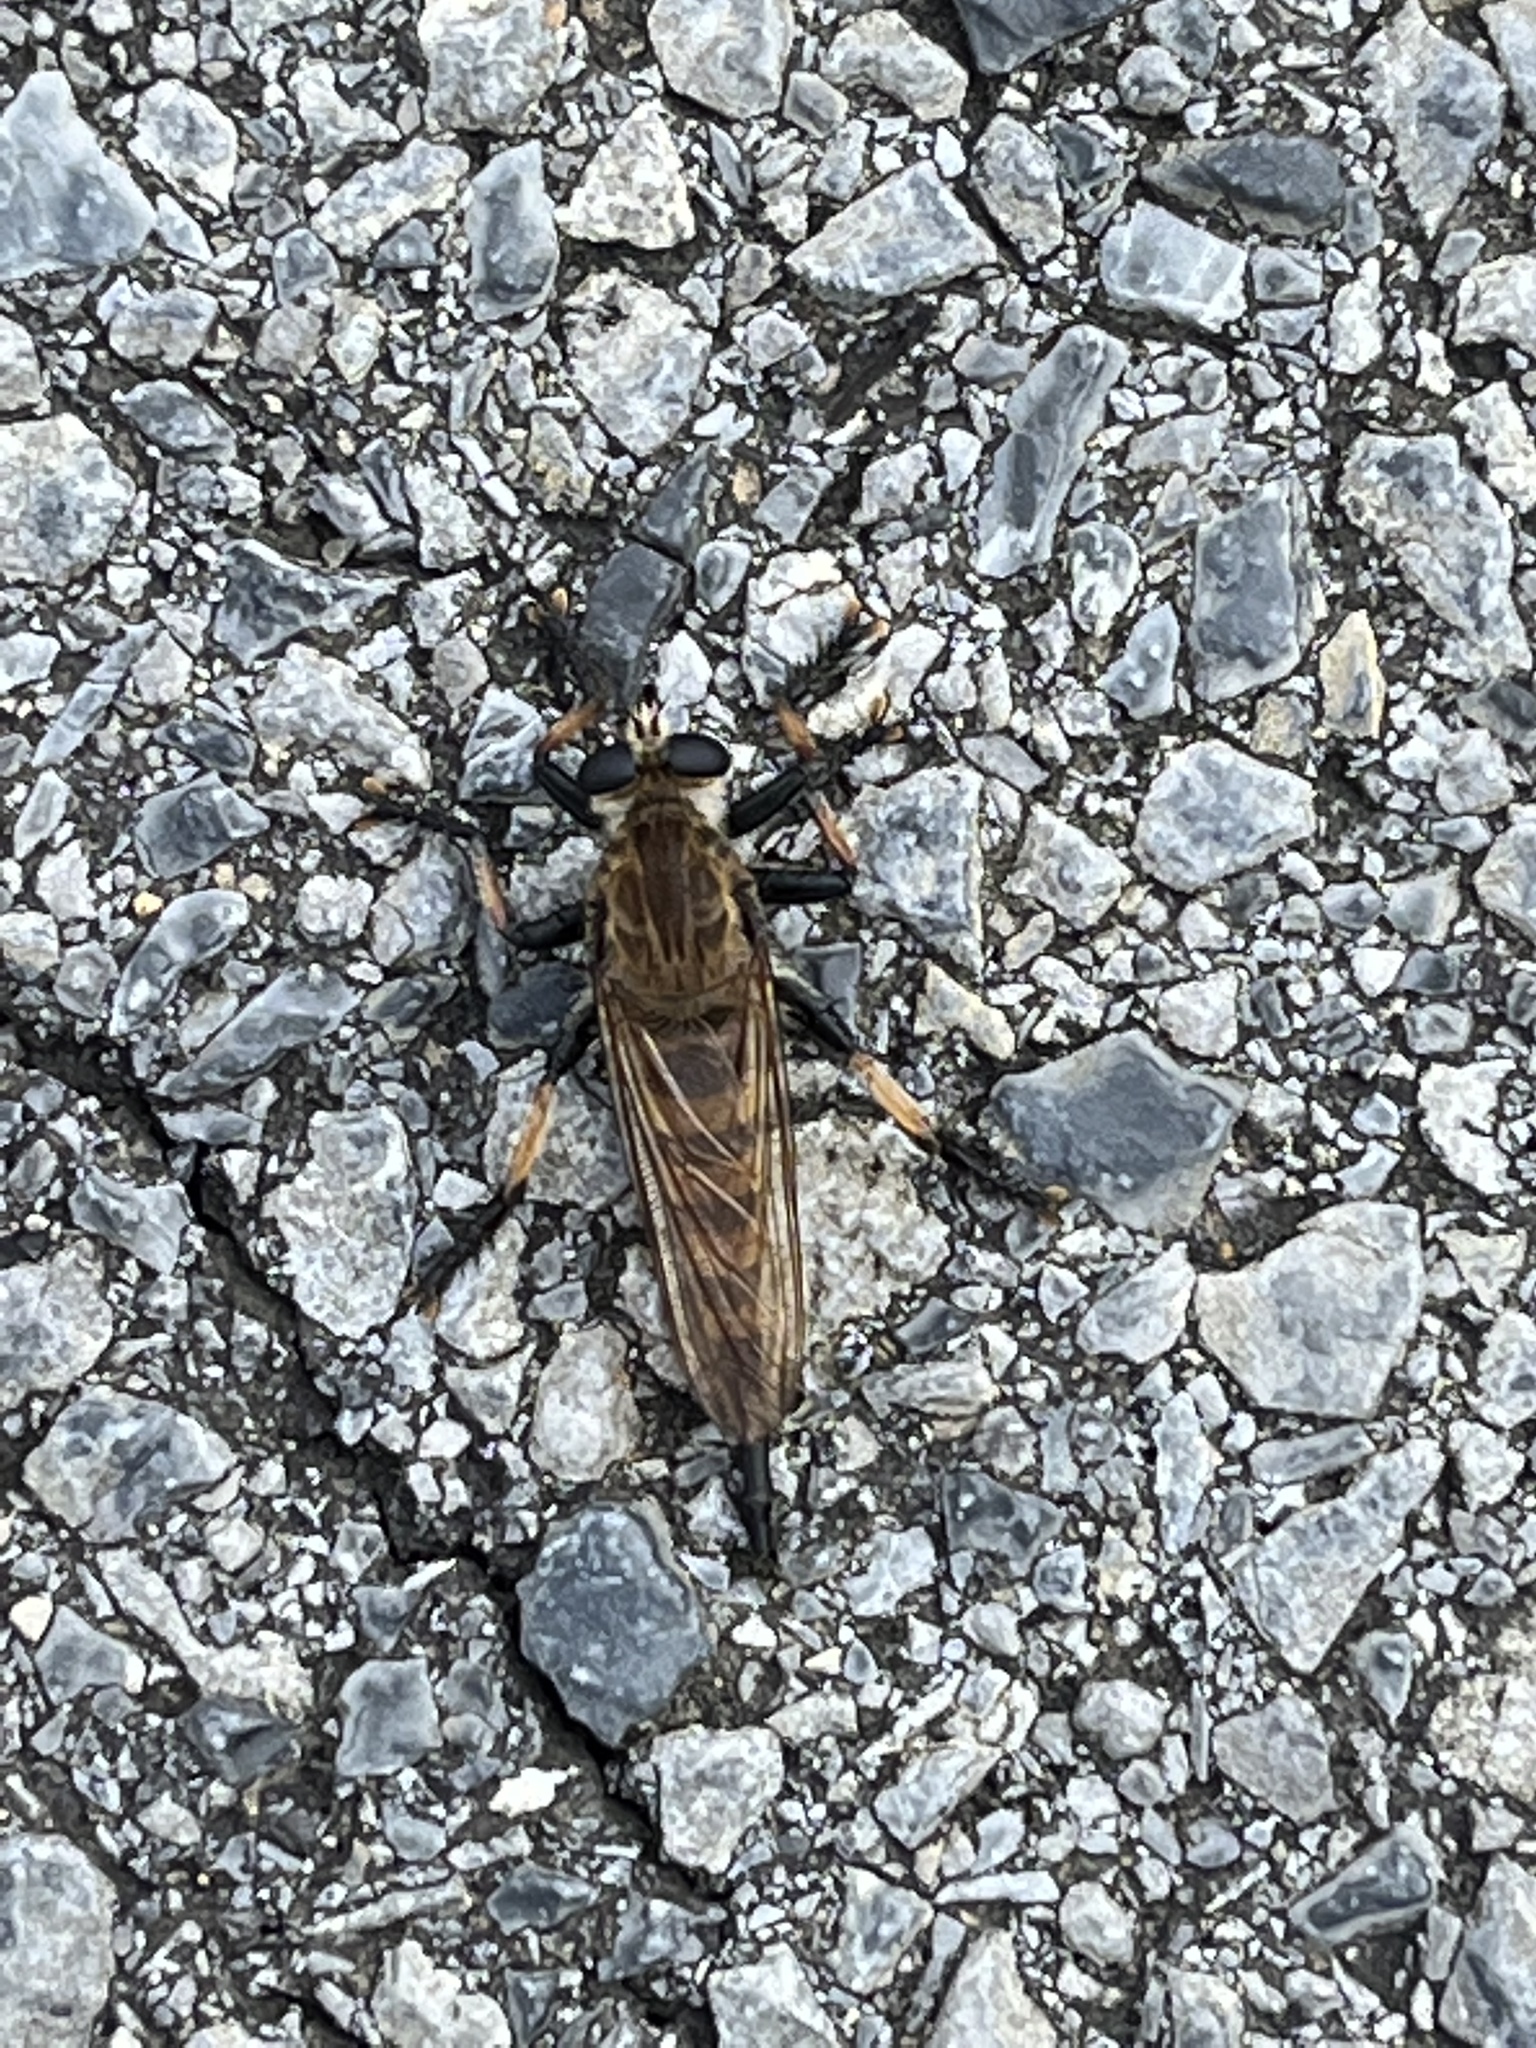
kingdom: Animalia
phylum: Arthropoda
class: Insecta
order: Diptera
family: Asilidae
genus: Promachus
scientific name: Promachus rufipes
